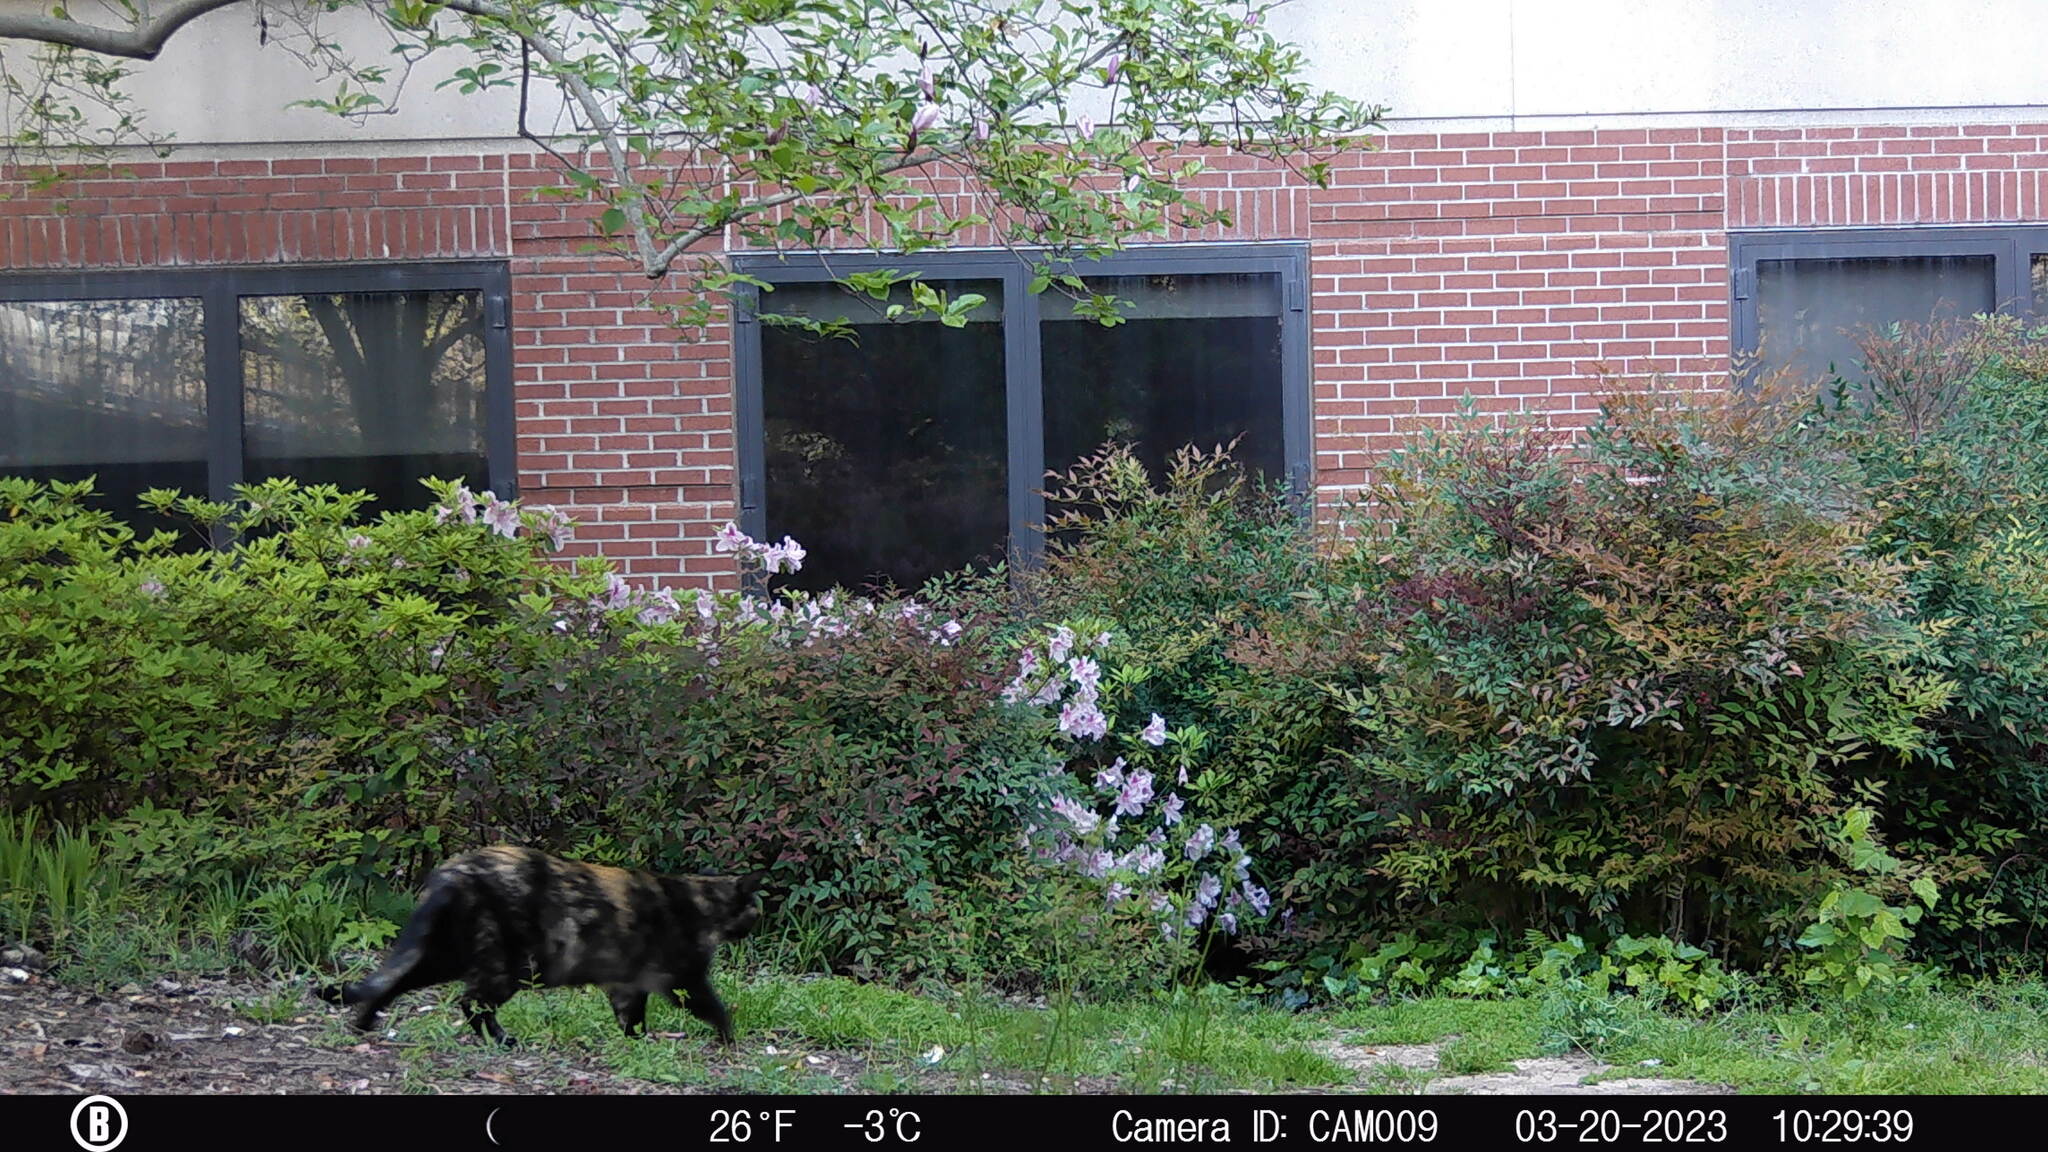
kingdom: Animalia
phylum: Chordata
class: Mammalia
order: Carnivora
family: Felidae
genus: Felis
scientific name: Felis catus
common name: Domestic cat
